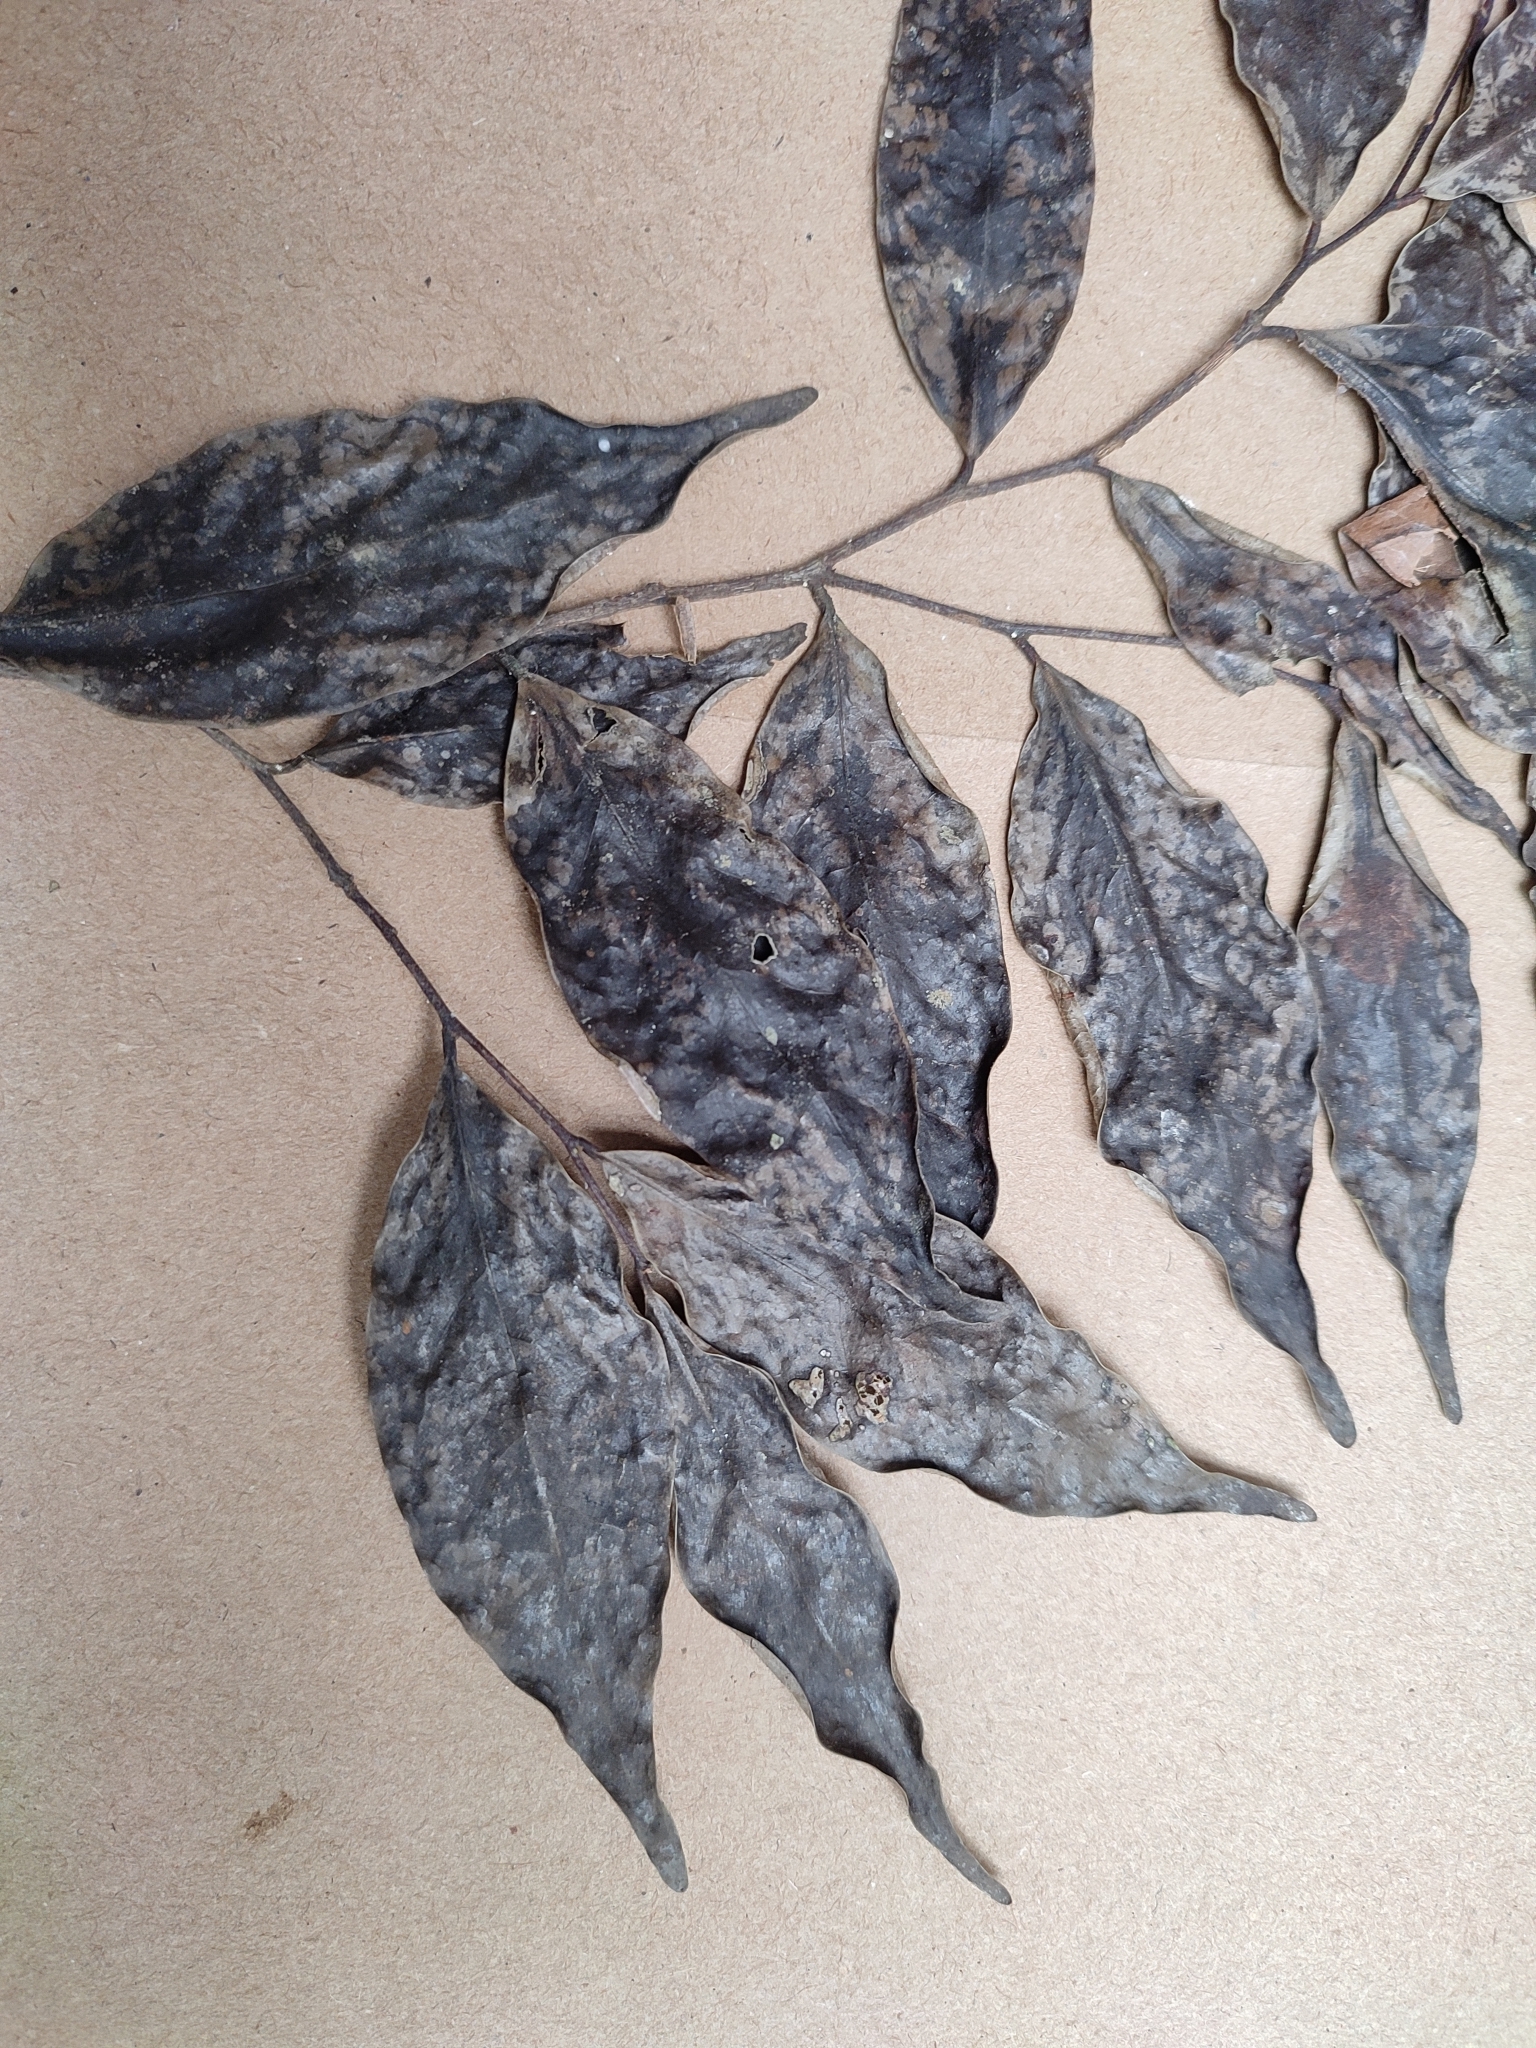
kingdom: Plantae
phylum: Tracheophyta
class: Magnoliopsida
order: Magnoliales
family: Annonaceae
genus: Orophea
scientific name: Orophea thomsonii
